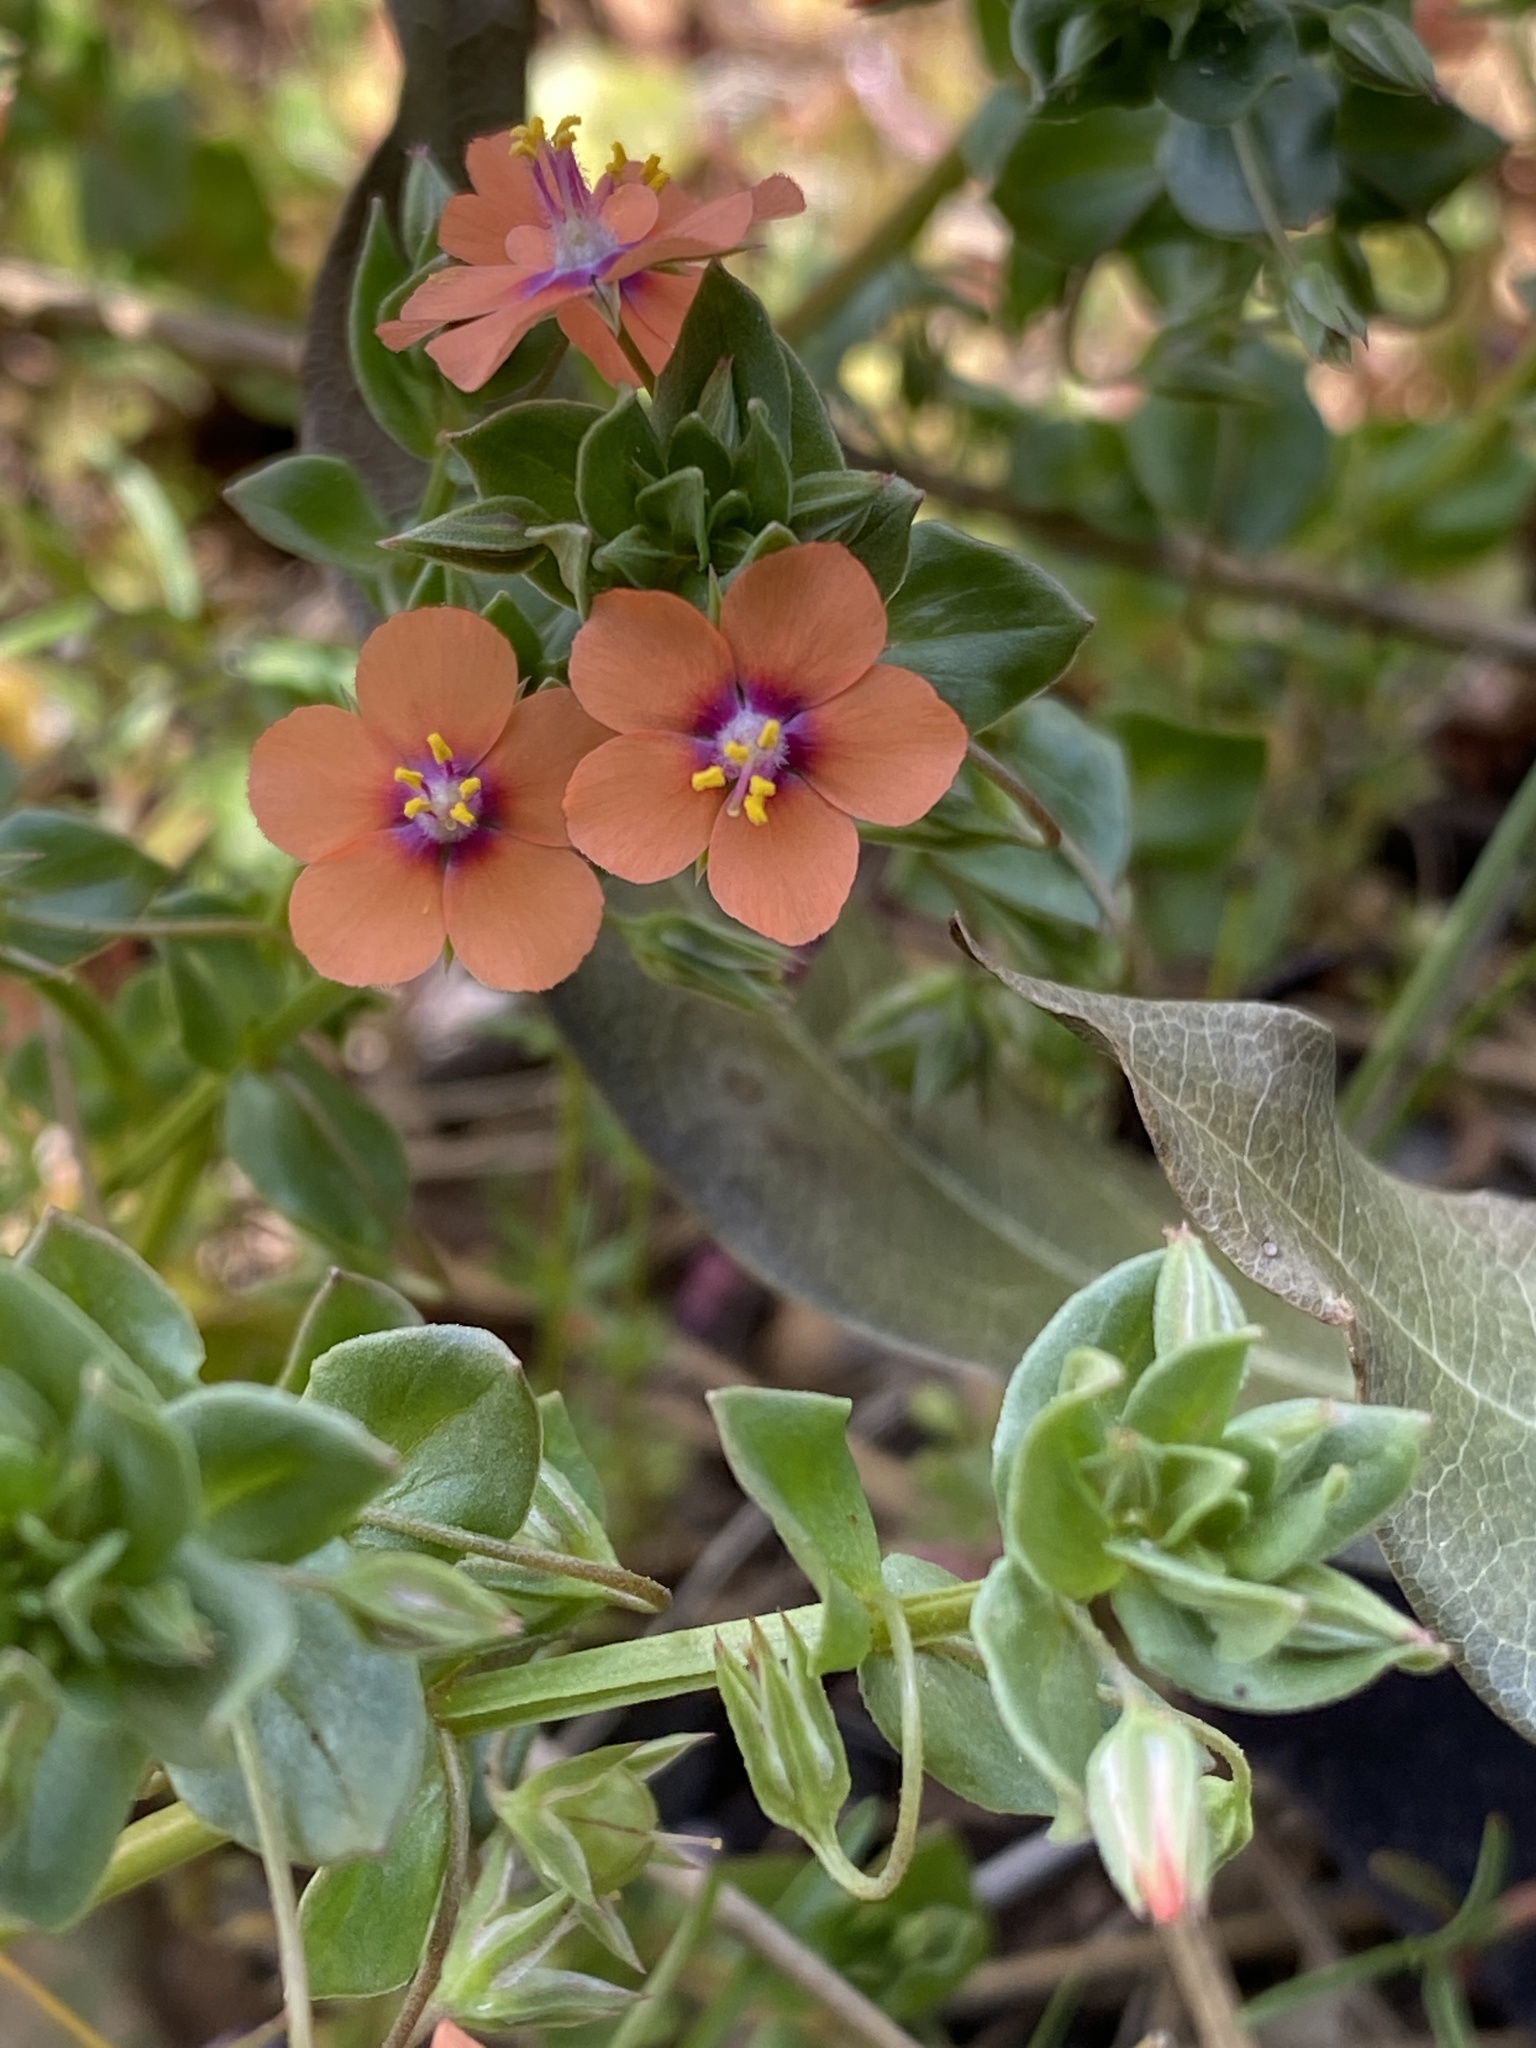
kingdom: Plantae
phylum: Tracheophyta
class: Magnoliopsida
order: Ericales
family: Primulaceae
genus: Lysimachia
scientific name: Lysimachia arvensis
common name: Scarlet pimpernel
